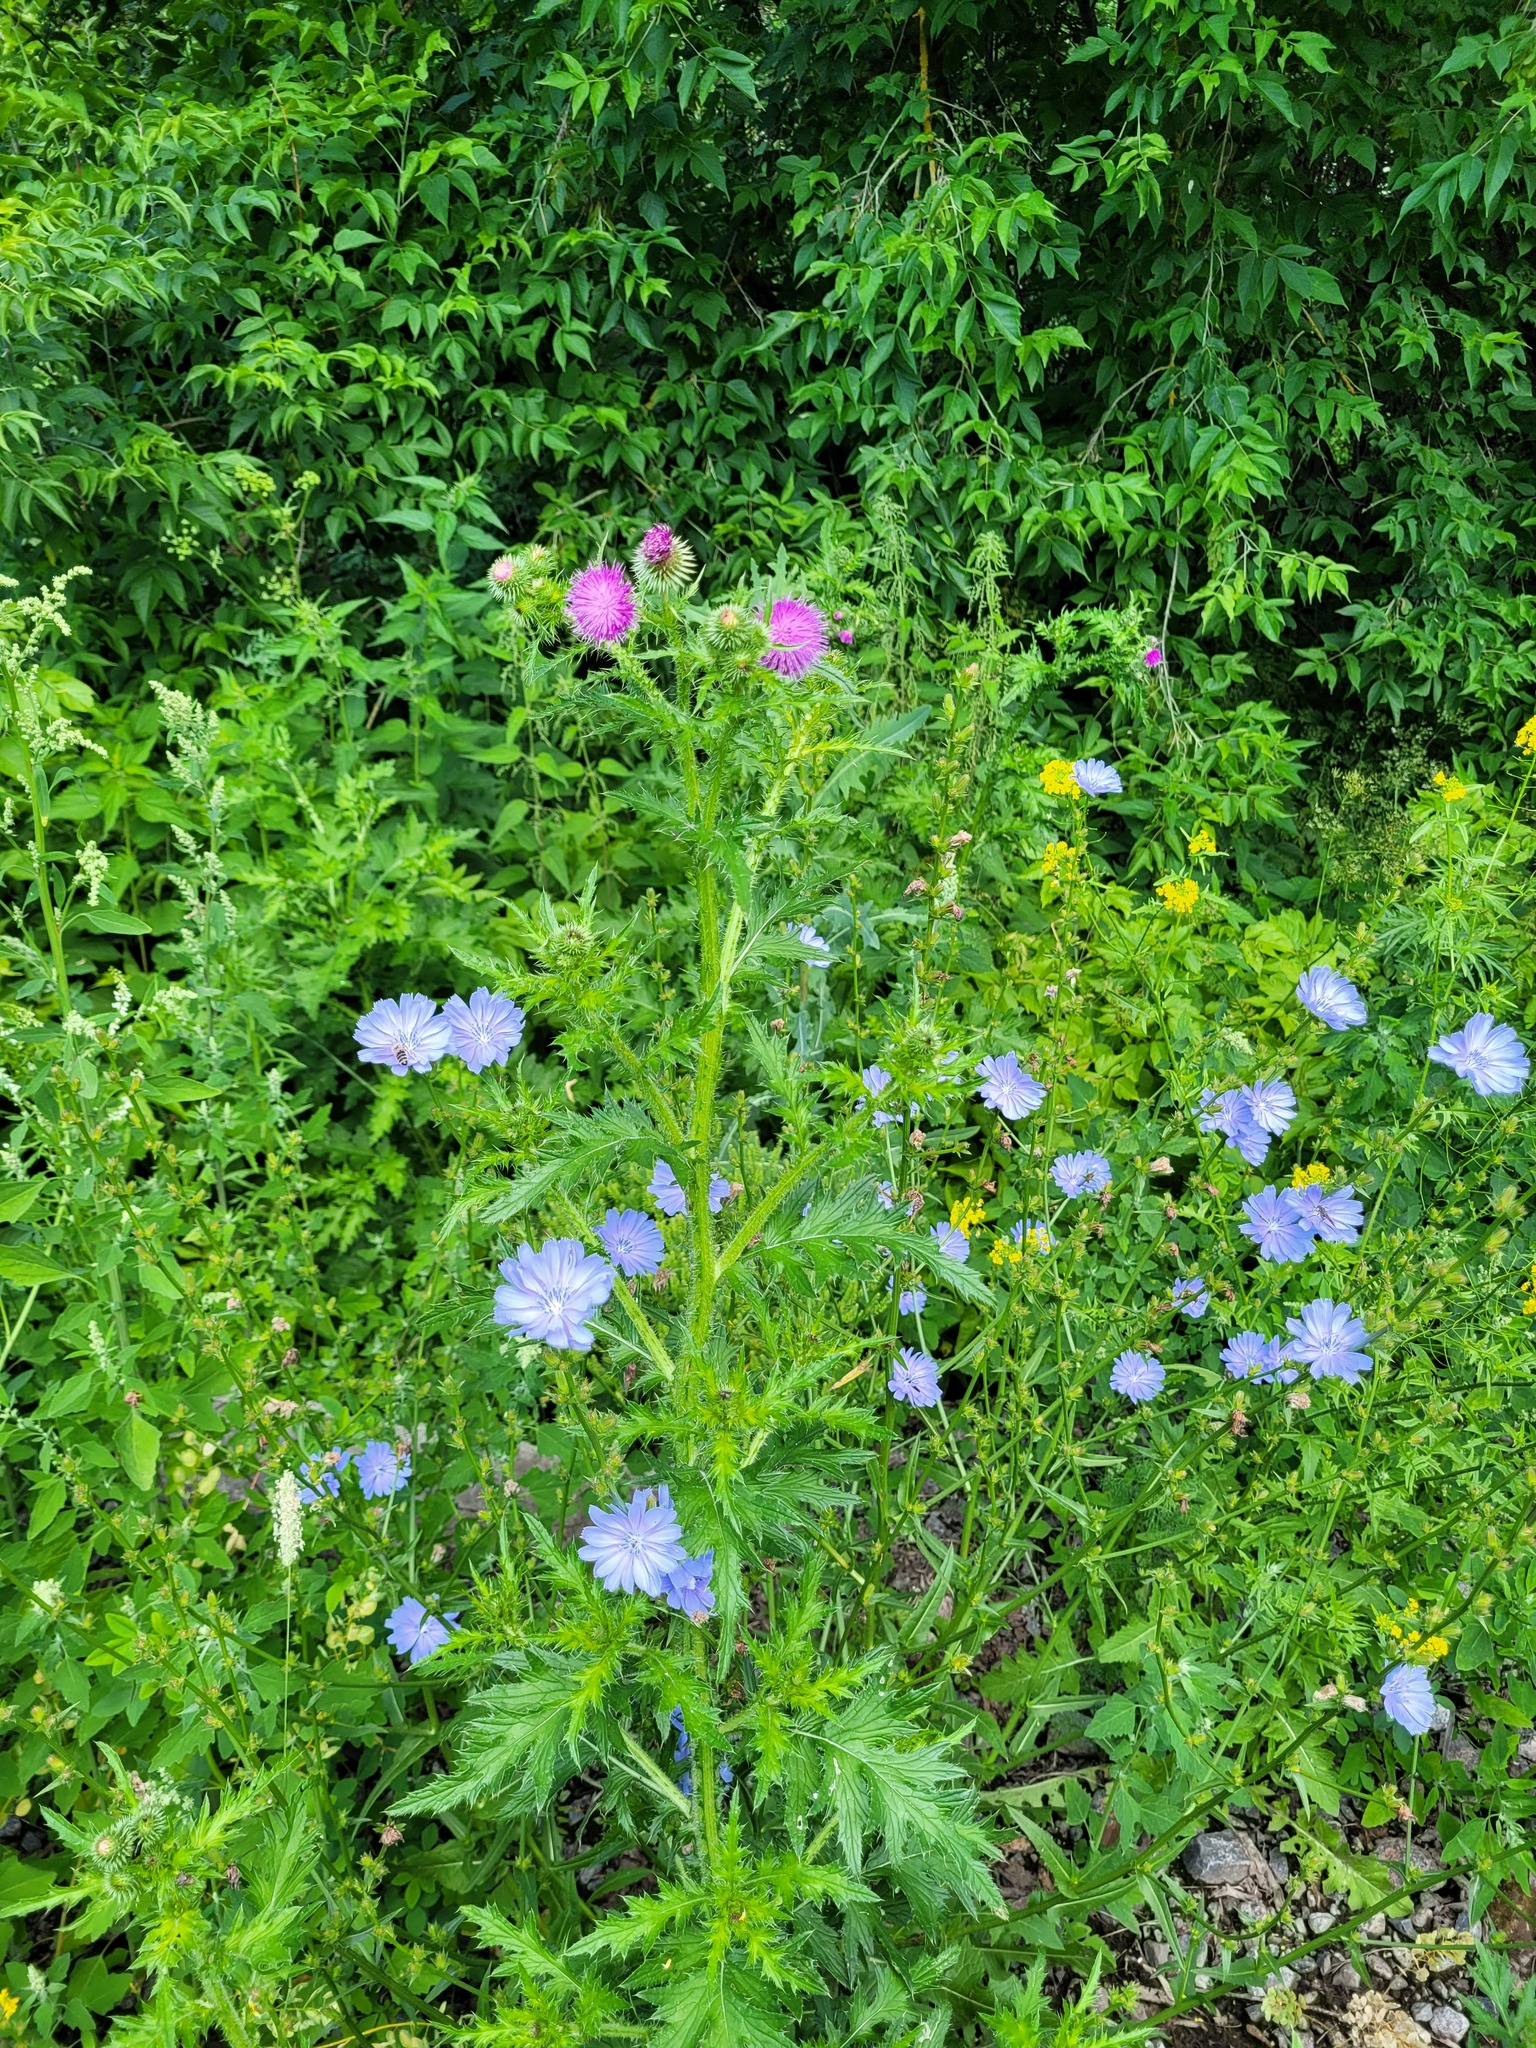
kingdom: Plantae
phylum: Tracheophyta
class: Magnoliopsida
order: Asterales
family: Asteraceae
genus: Carduus
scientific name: Carduus crispus
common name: Welted thistle
